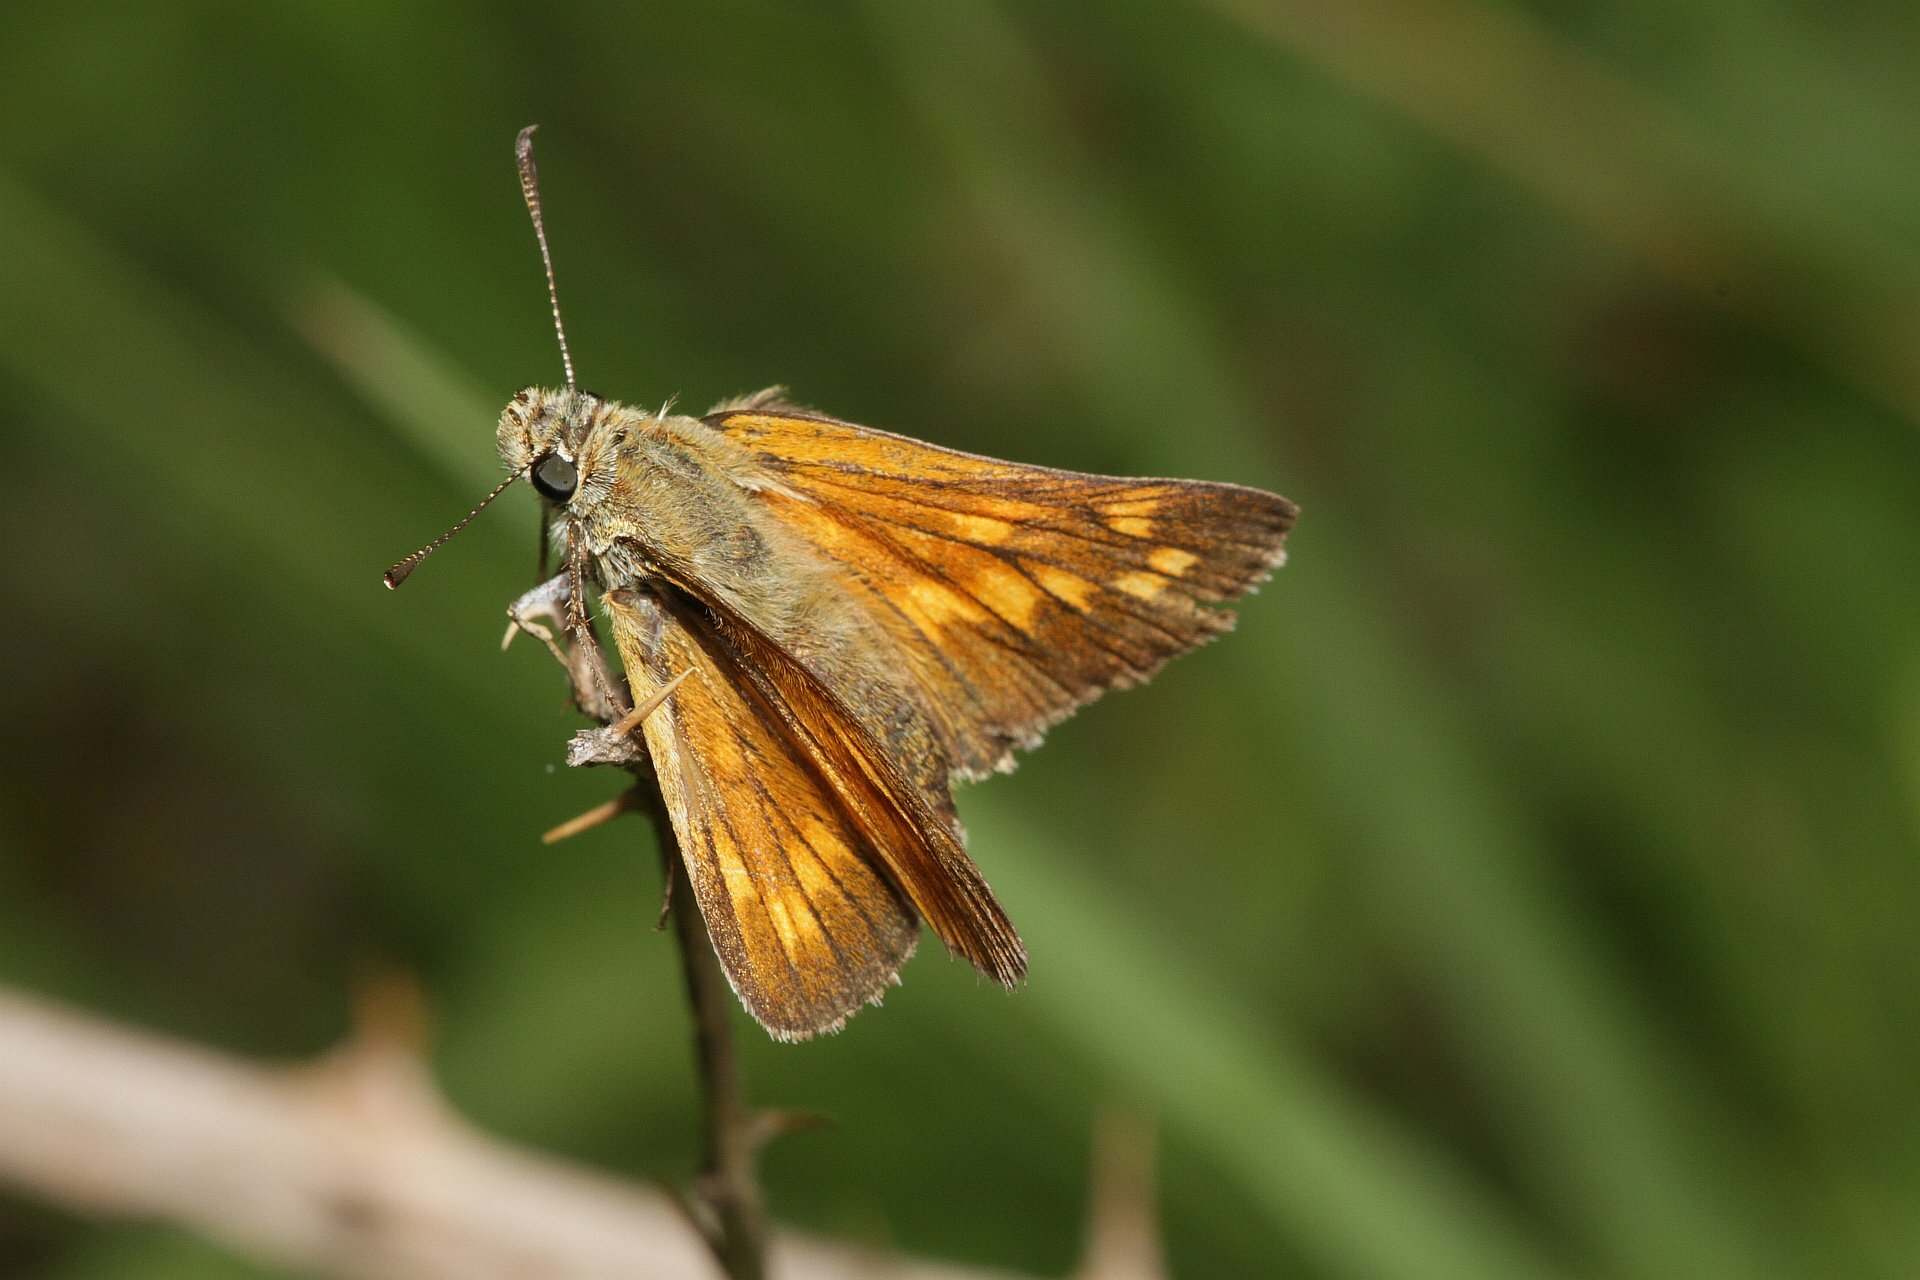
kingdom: Animalia
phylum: Arthropoda
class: Insecta
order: Lepidoptera
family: Hesperiidae
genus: Ochlodes
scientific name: Ochlodes venata
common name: Large skipper
